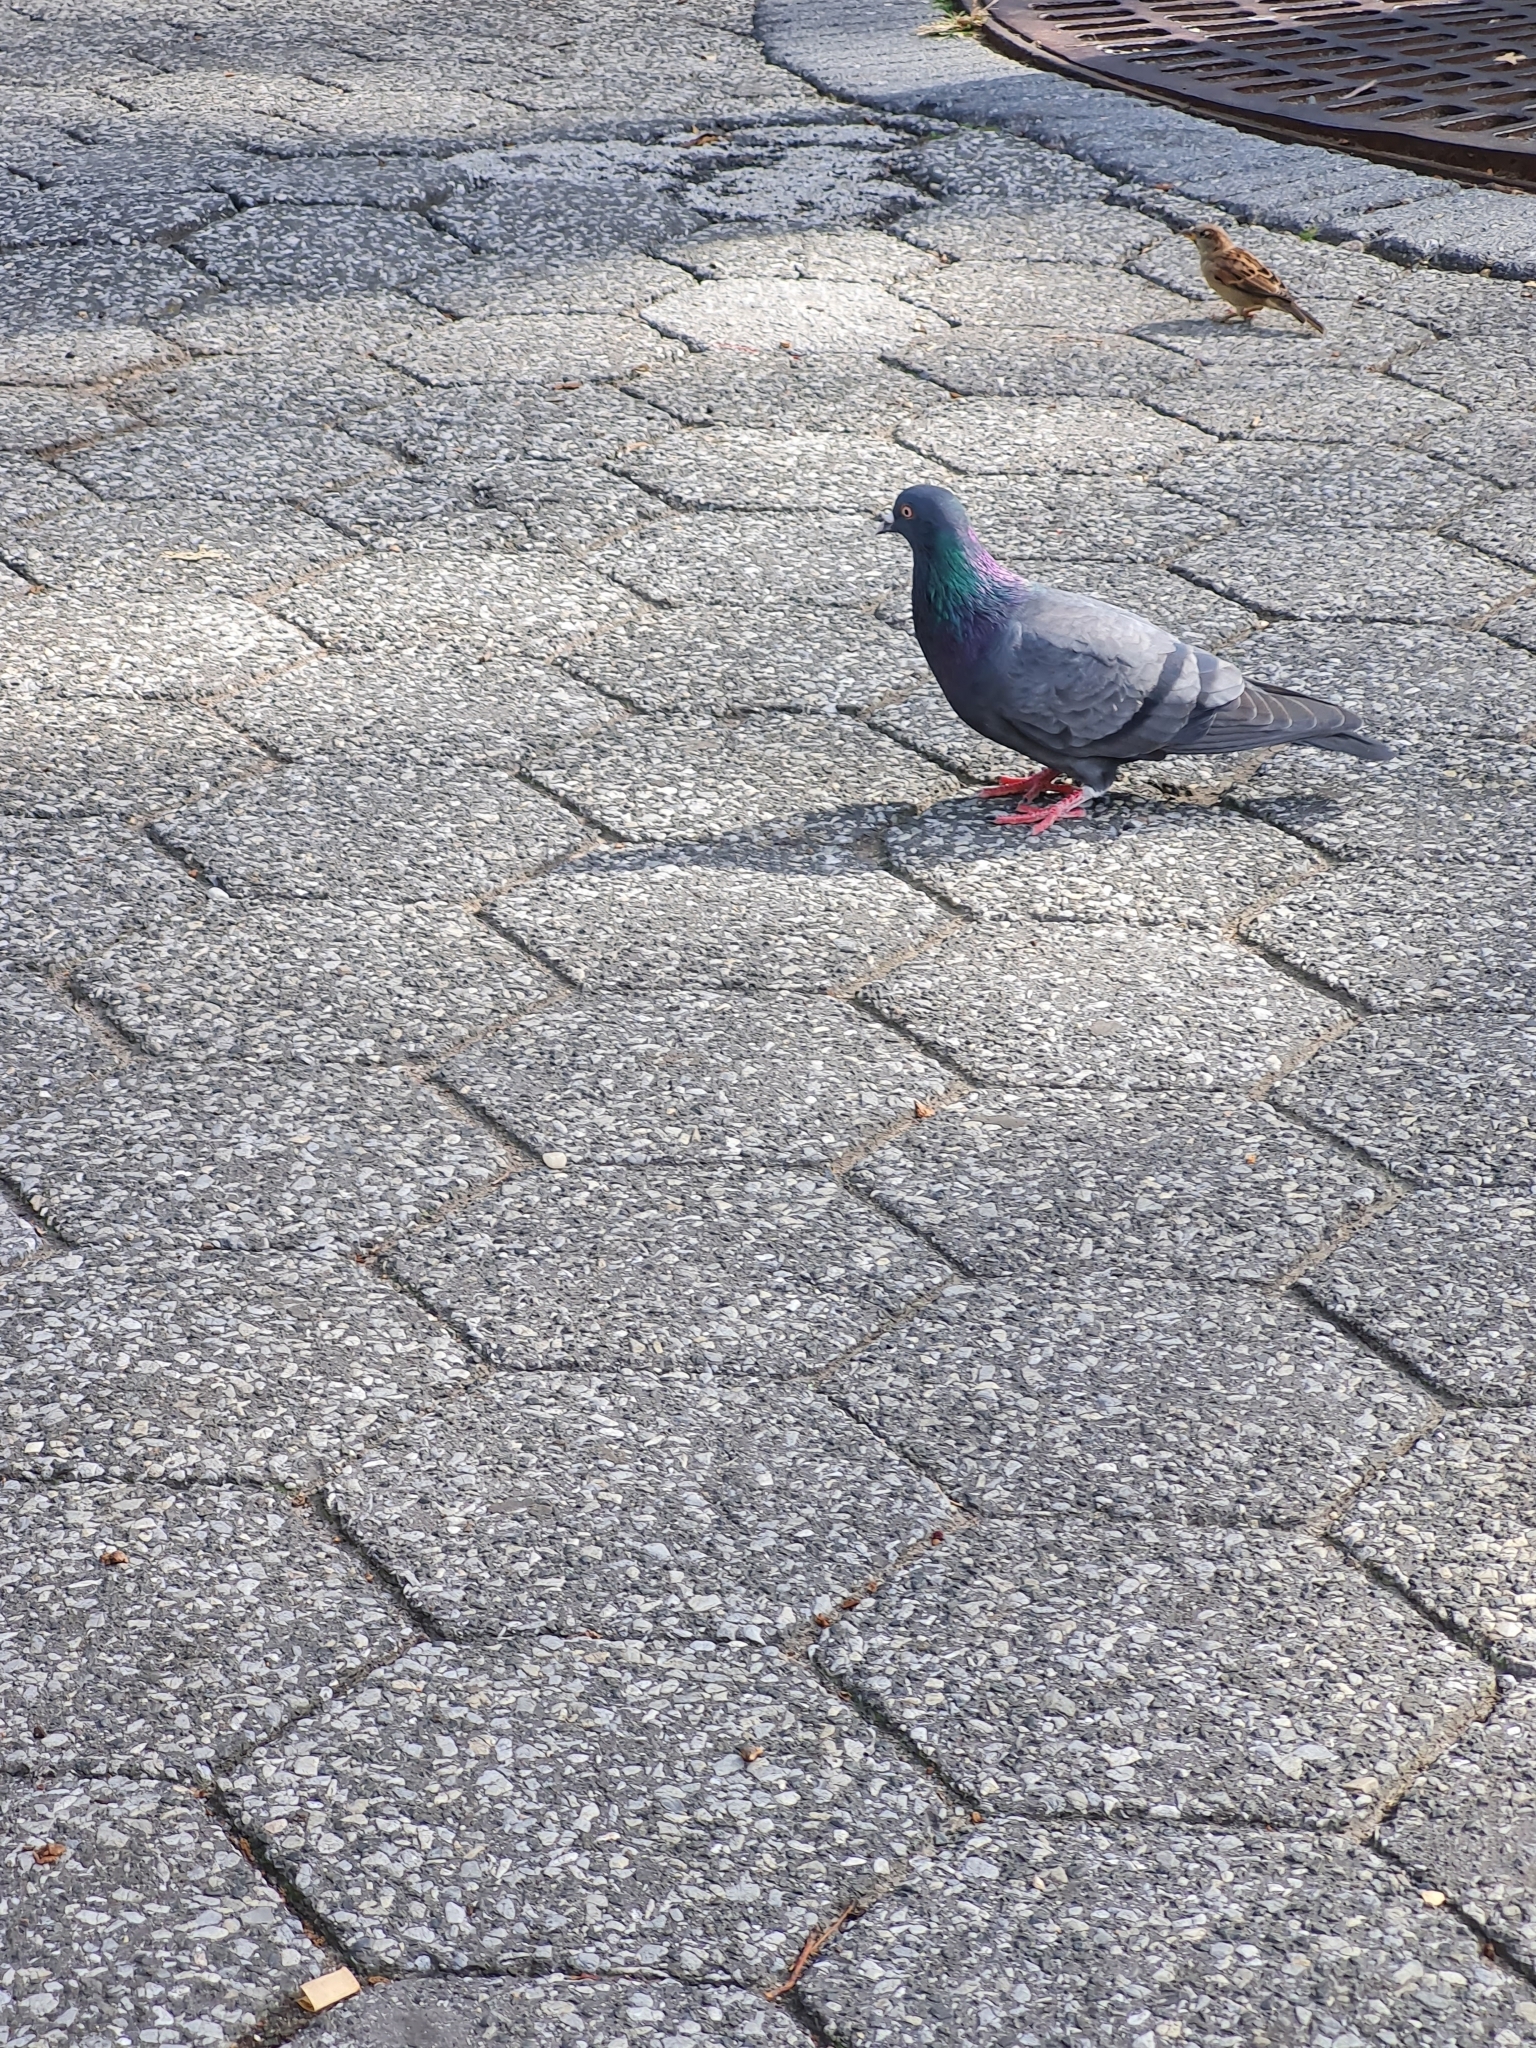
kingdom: Animalia
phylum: Chordata
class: Aves
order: Columbiformes
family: Columbidae
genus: Columba
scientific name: Columba livia
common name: Rock pigeon
